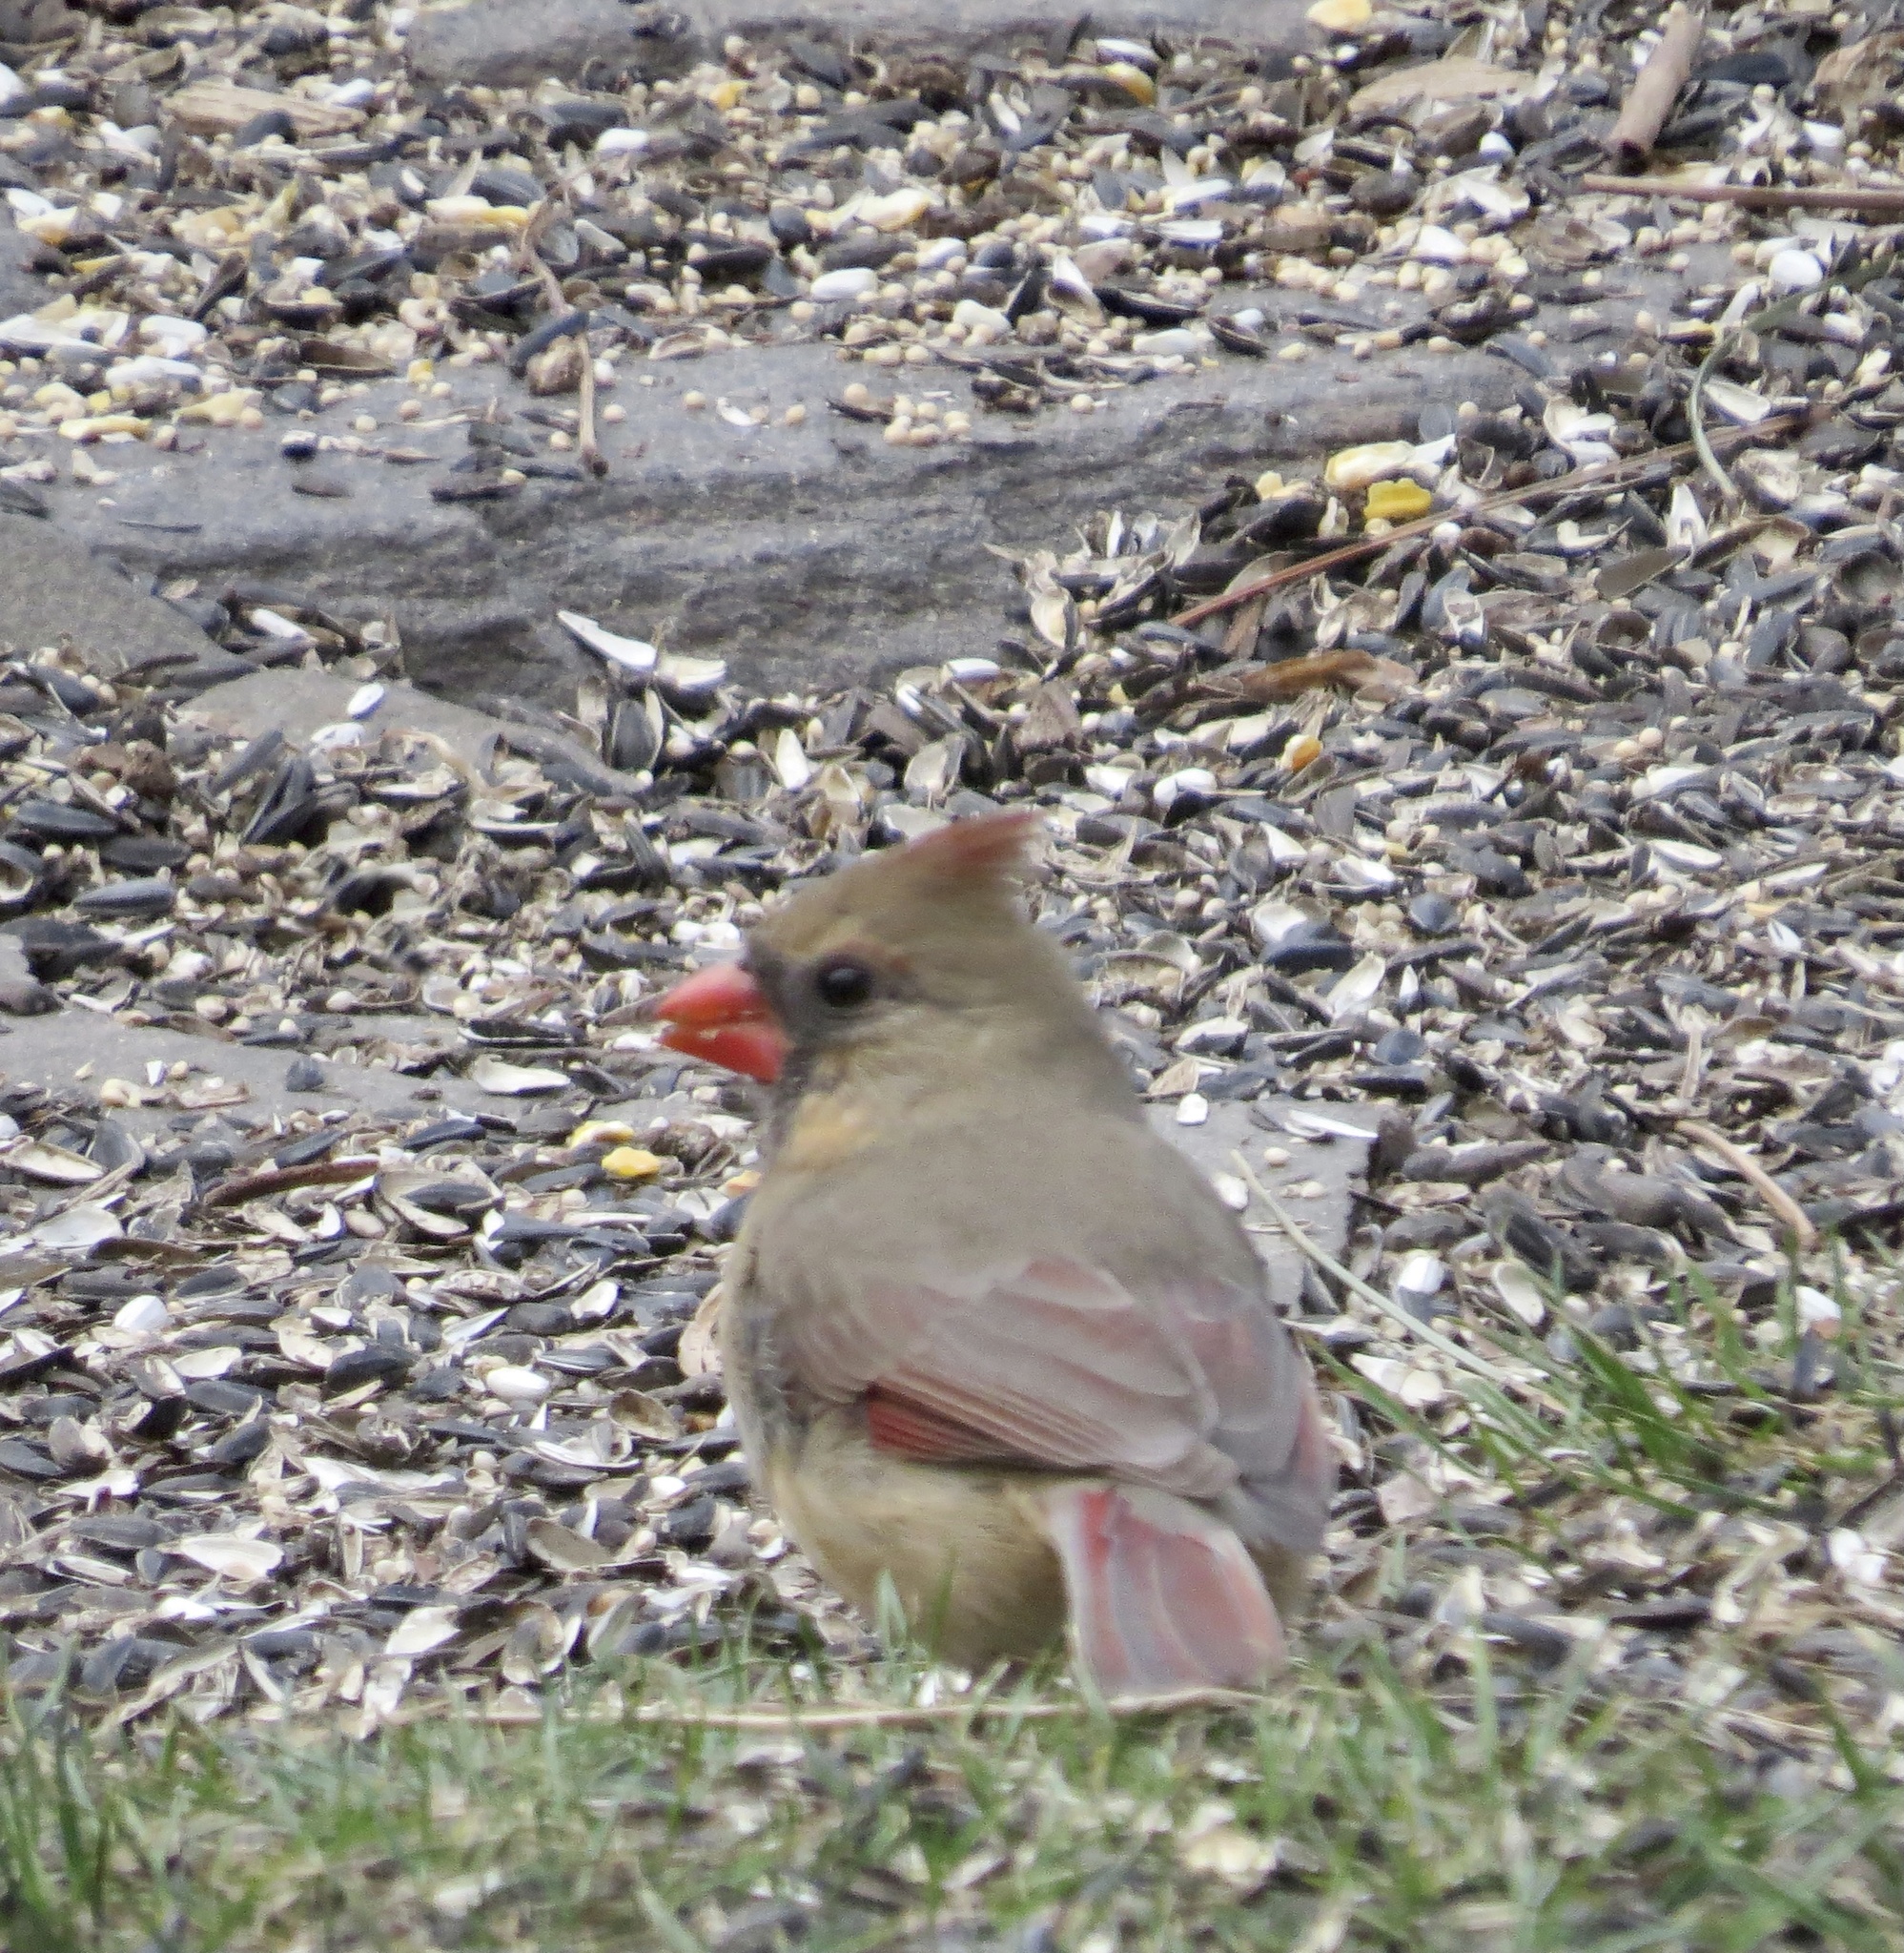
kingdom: Animalia
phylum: Chordata
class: Aves
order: Passeriformes
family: Cardinalidae
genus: Cardinalis
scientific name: Cardinalis cardinalis
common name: Northern cardinal
